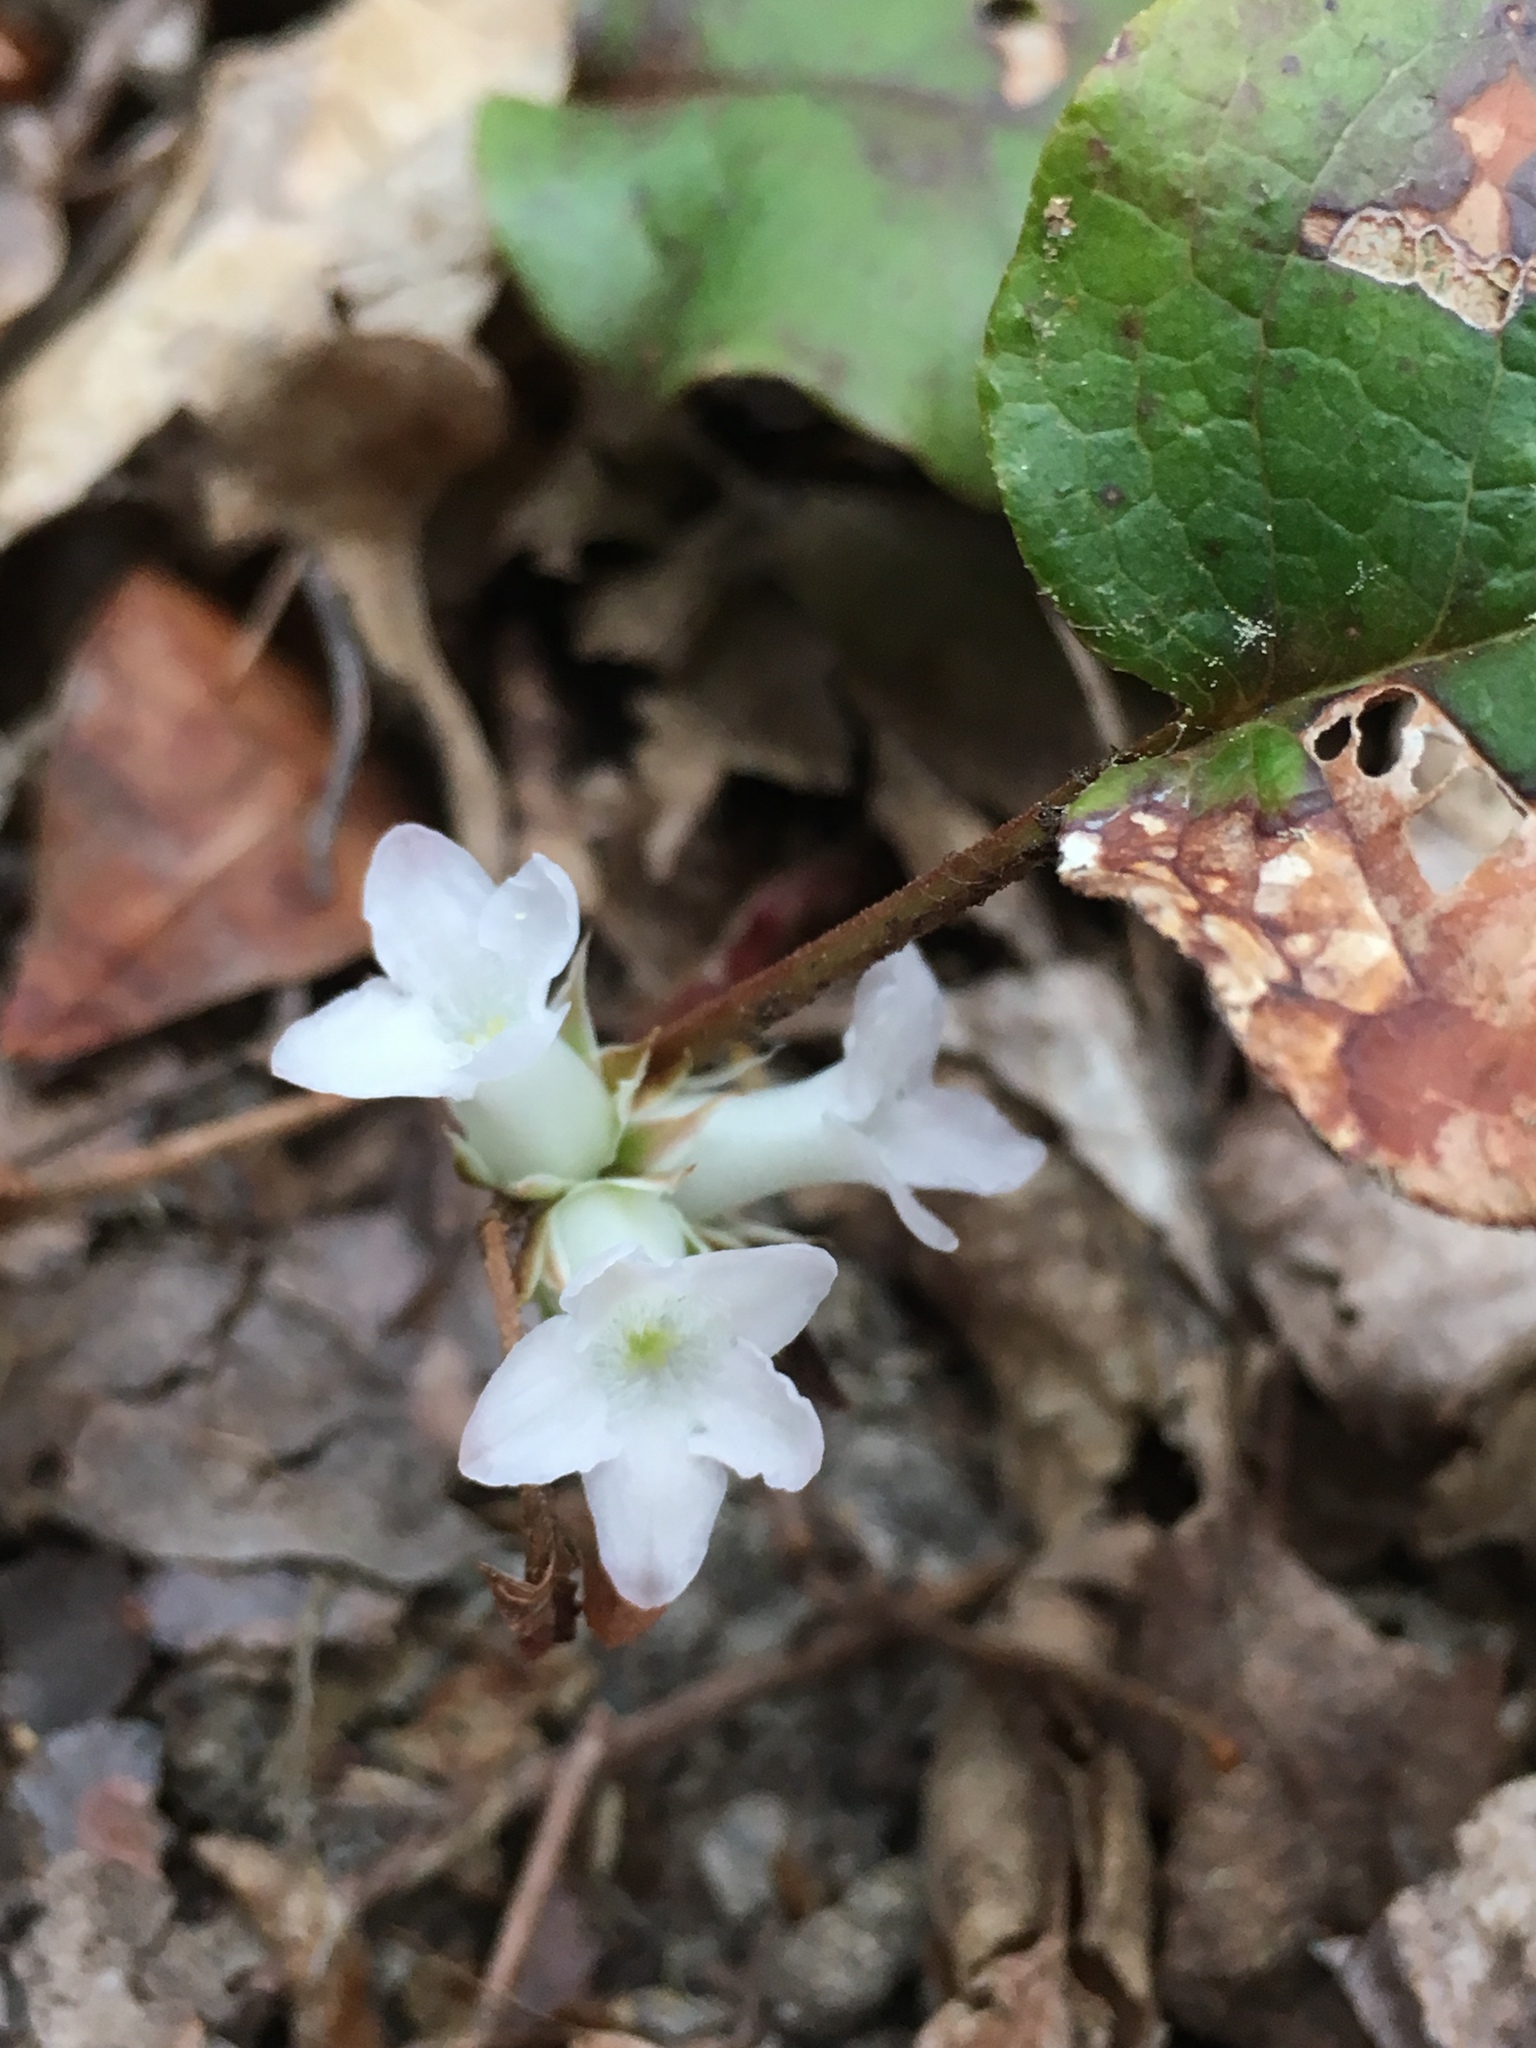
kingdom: Plantae
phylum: Tracheophyta
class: Magnoliopsida
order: Ericales
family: Ericaceae
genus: Epigaea
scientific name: Epigaea repens
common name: Gravelroot
